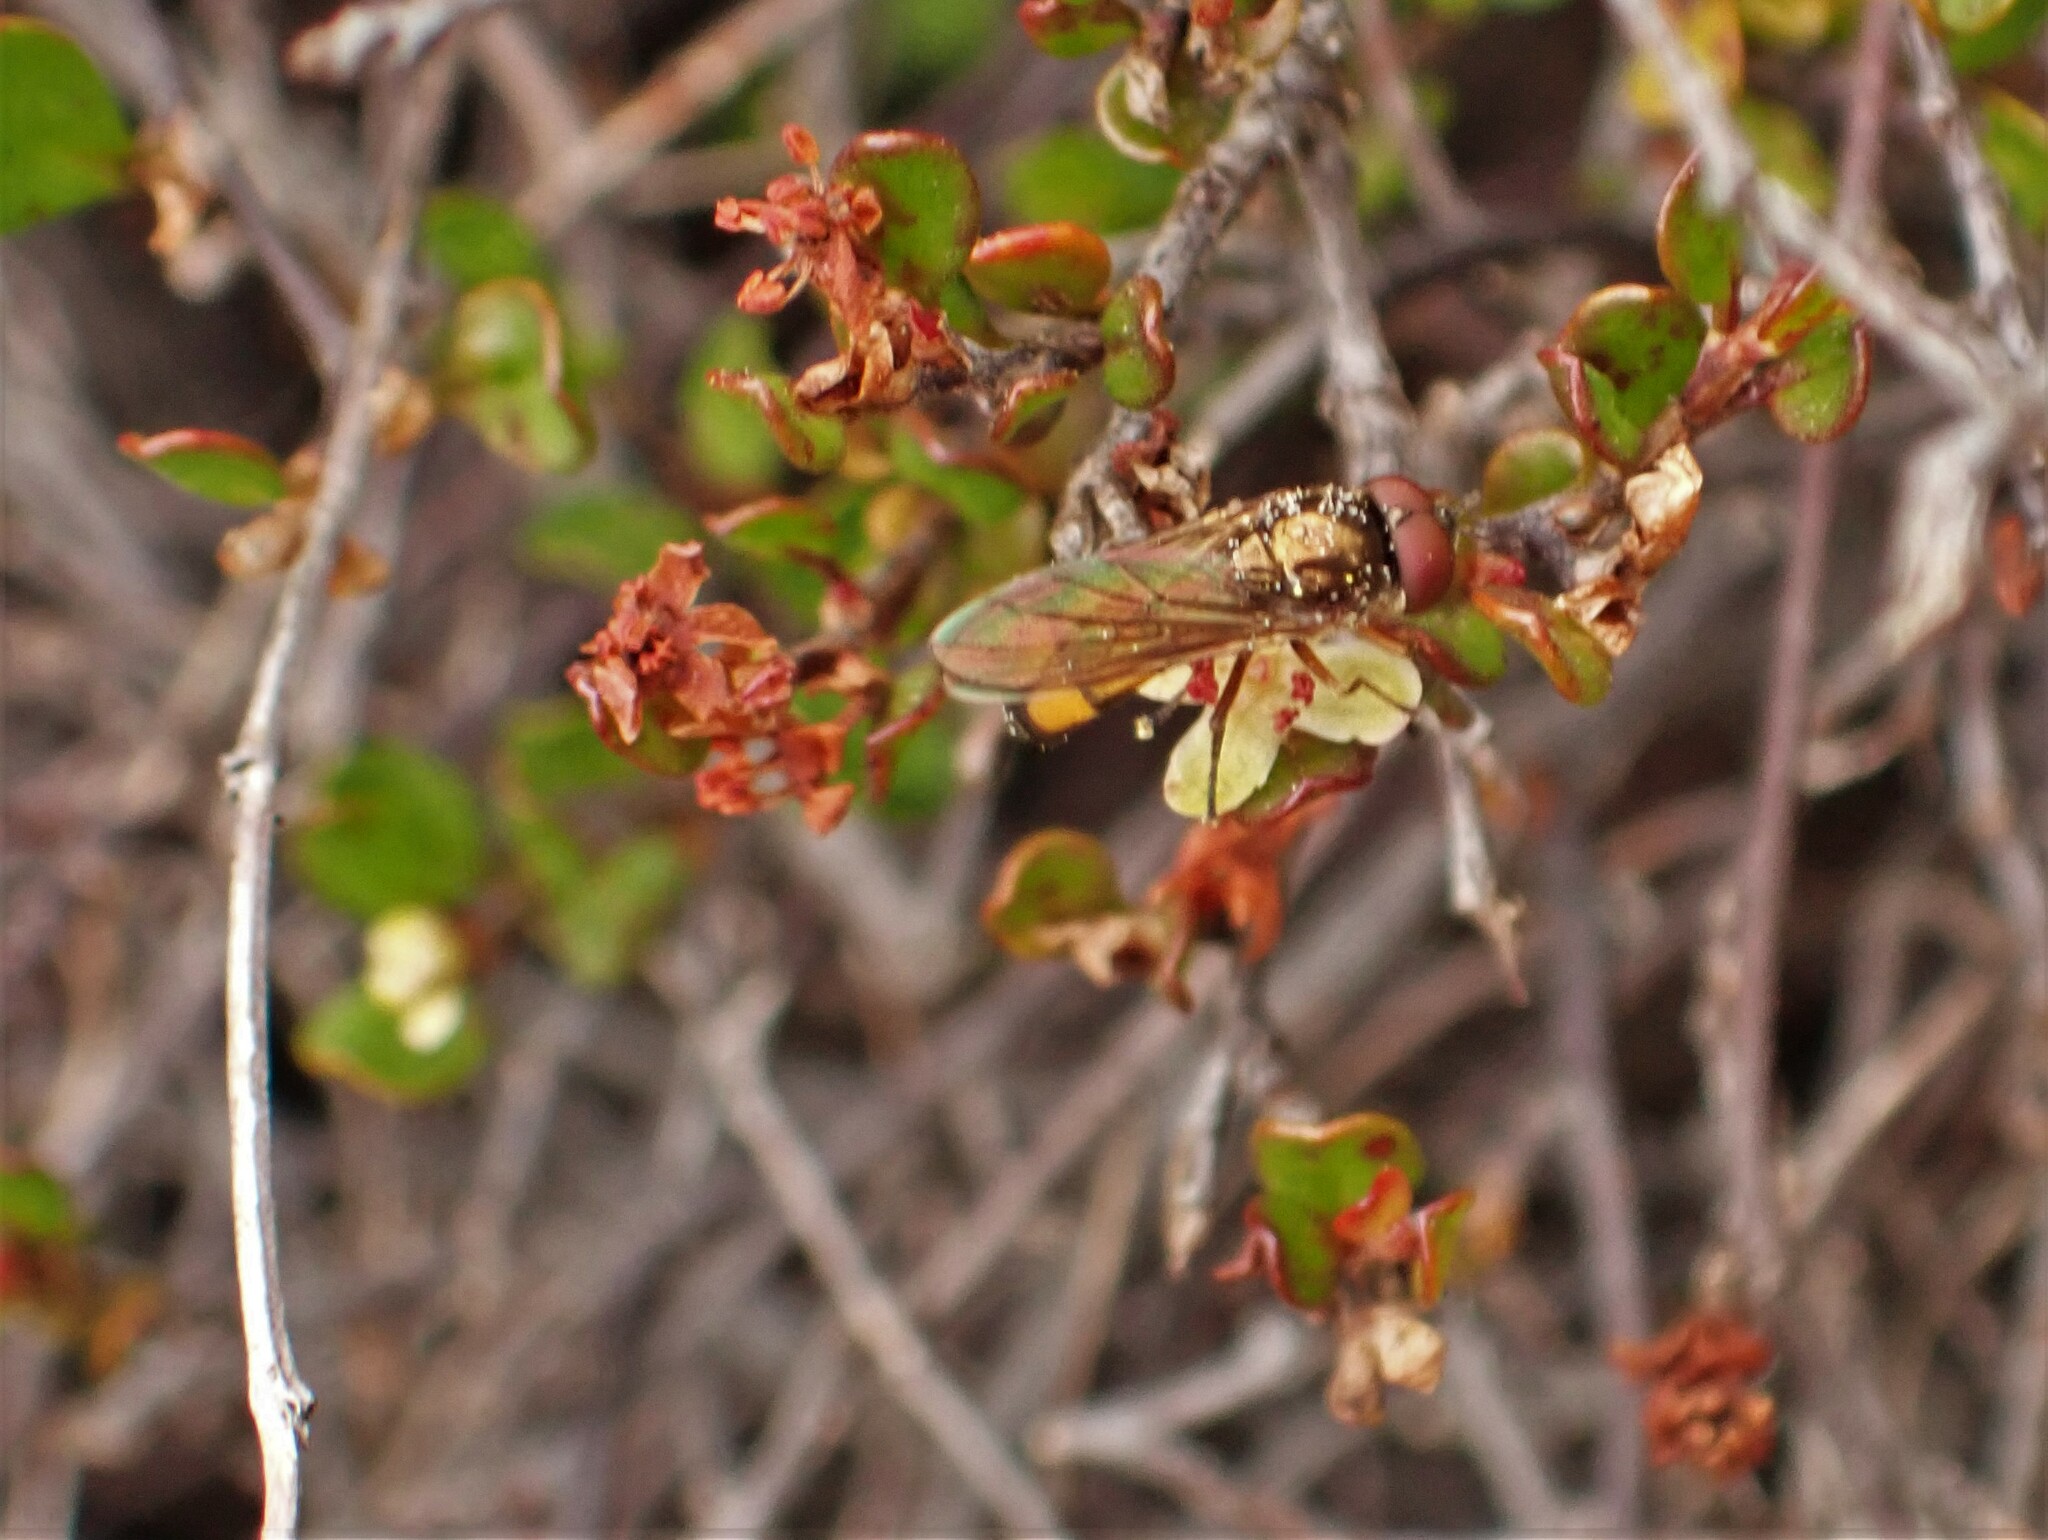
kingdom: Animalia
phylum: Arthropoda
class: Insecta
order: Diptera
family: Syrphidae
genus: Melanostoma
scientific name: Melanostoma fasciatum
